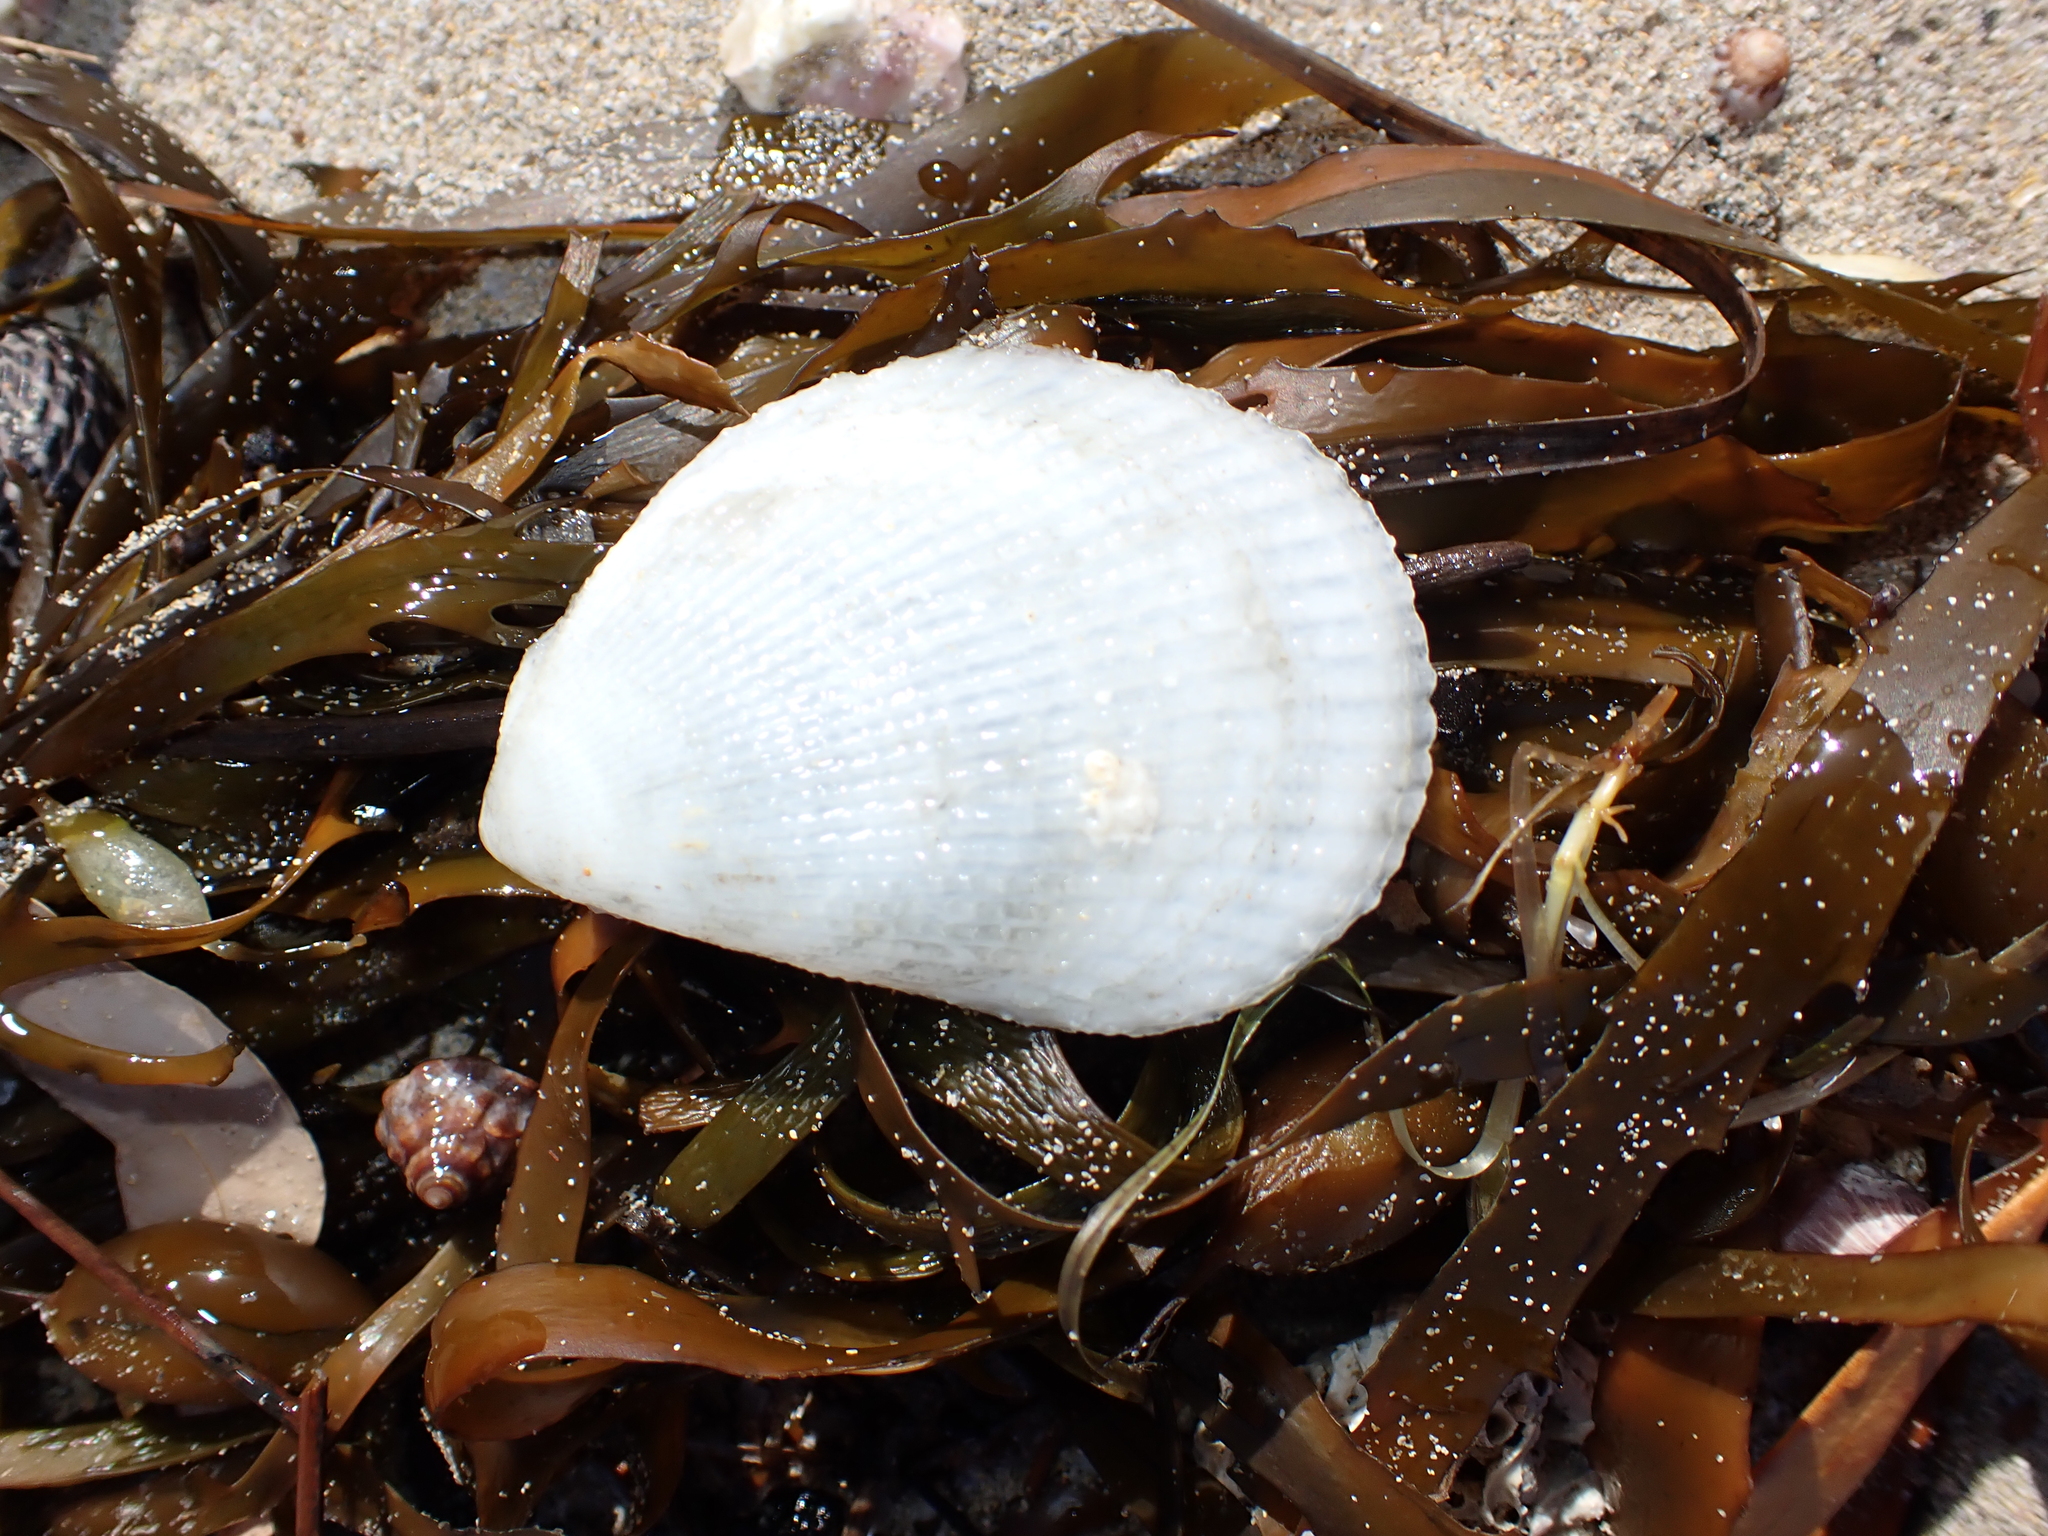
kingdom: Animalia
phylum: Mollusca
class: Bivalvia
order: Limida
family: Limidae
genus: Lima
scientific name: Lima nimbifer
